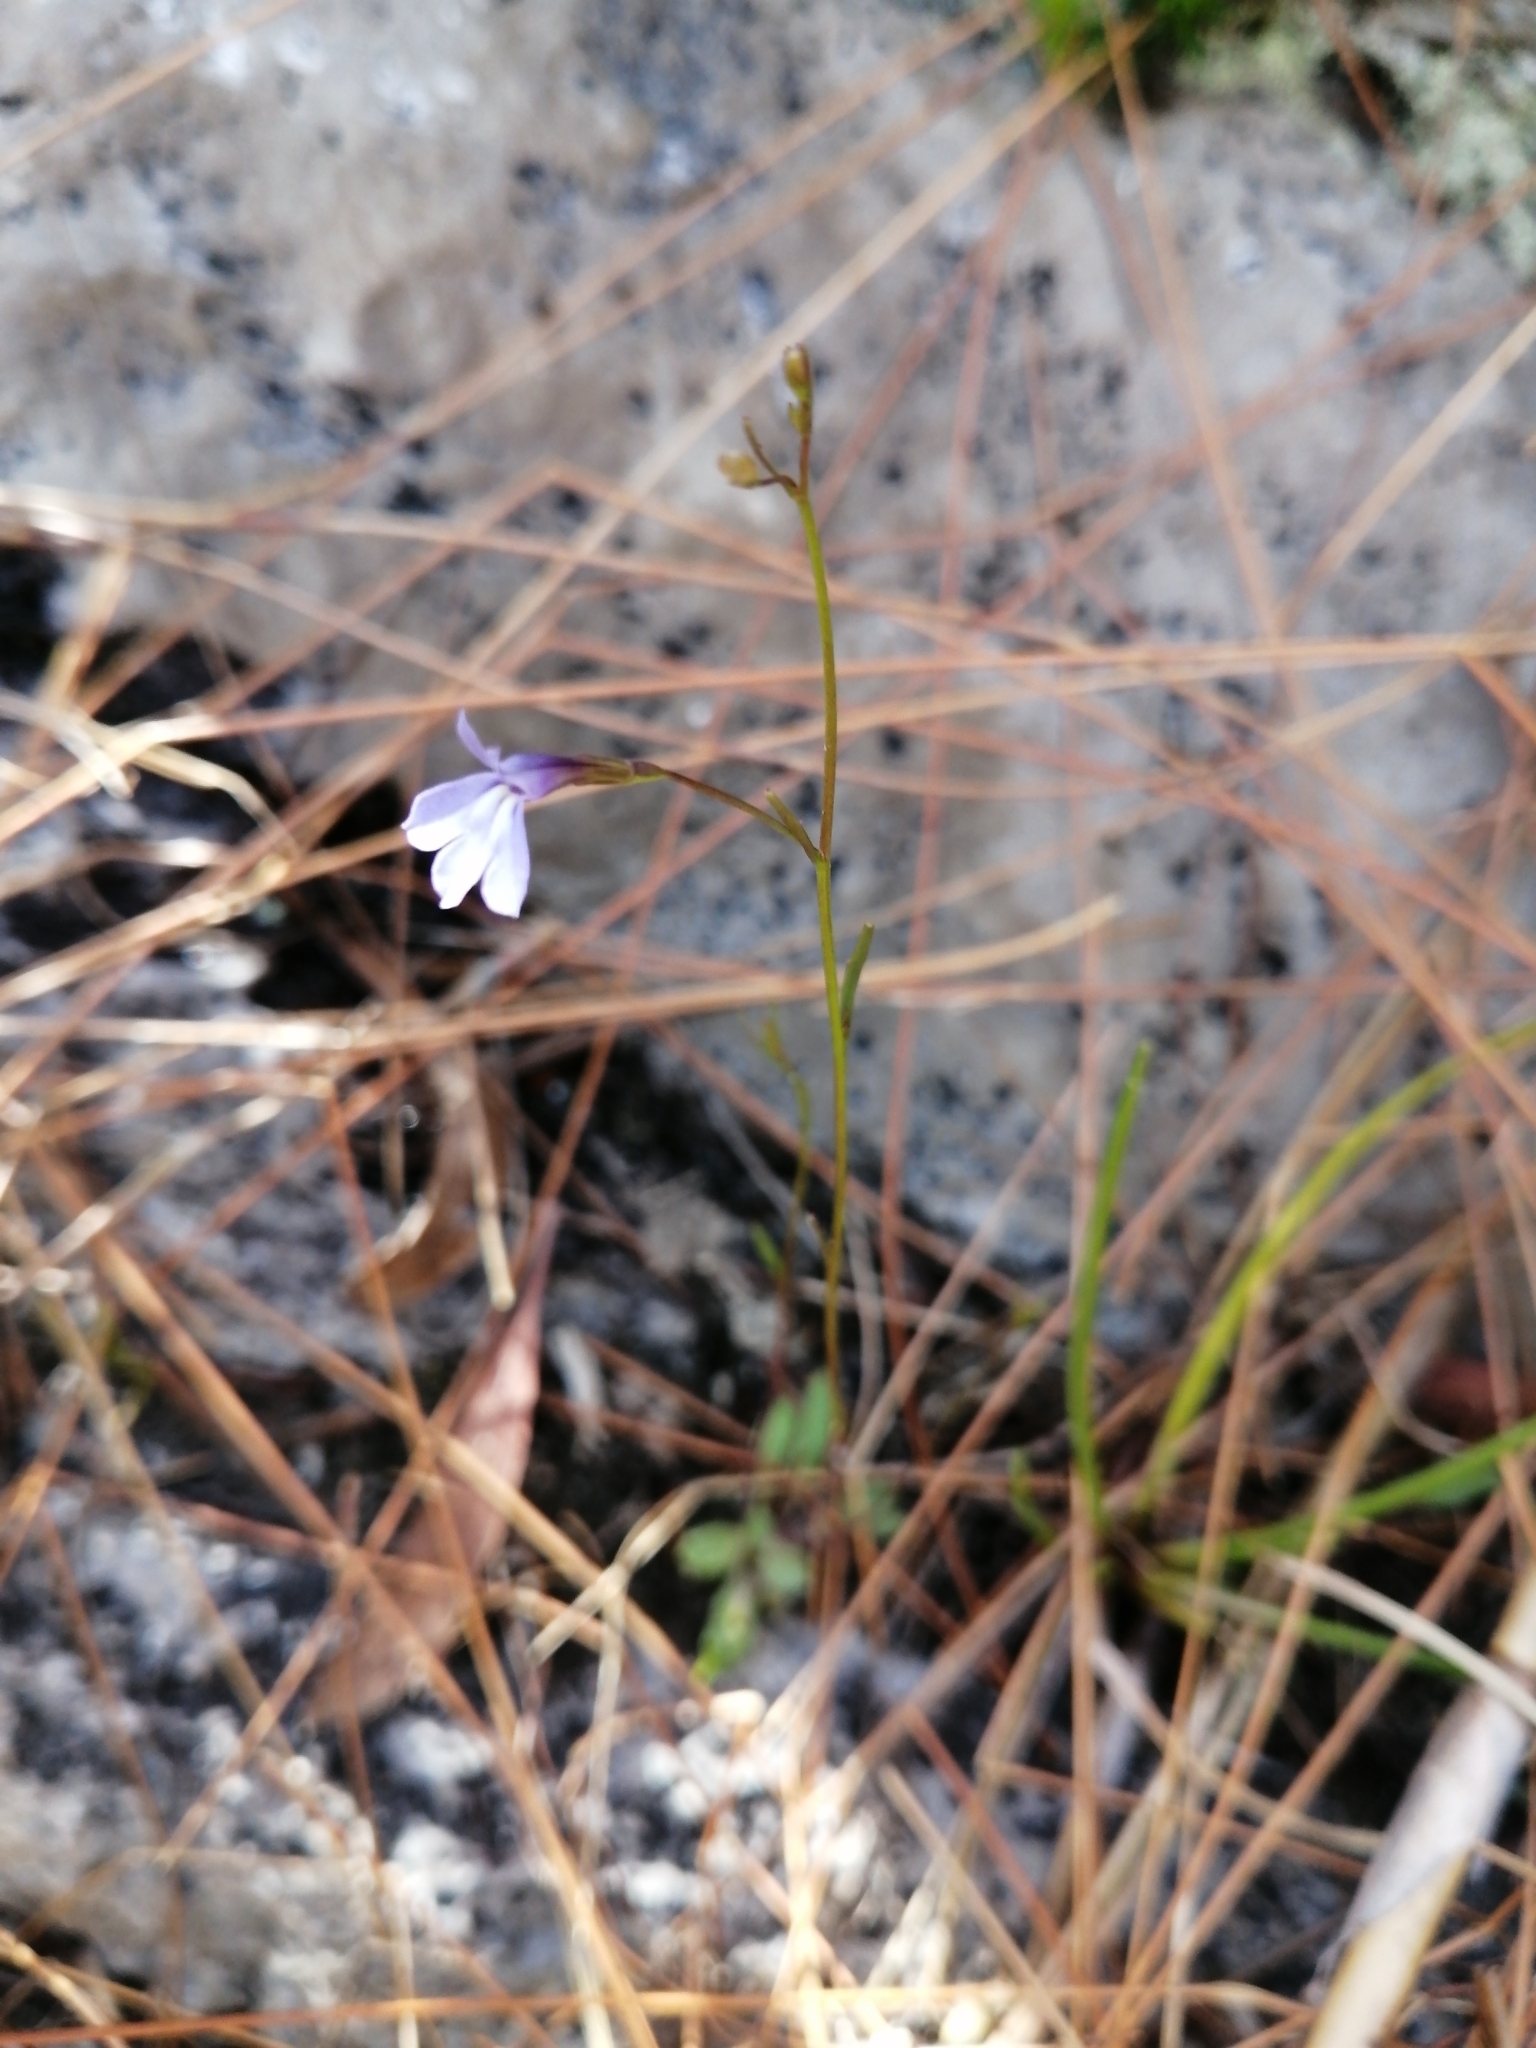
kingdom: Plantae
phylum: Tracheophyta
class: Magnoliopsida
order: Asterales
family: Campanulaceae
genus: Wimmerella
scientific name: Wimmerella arabidea
